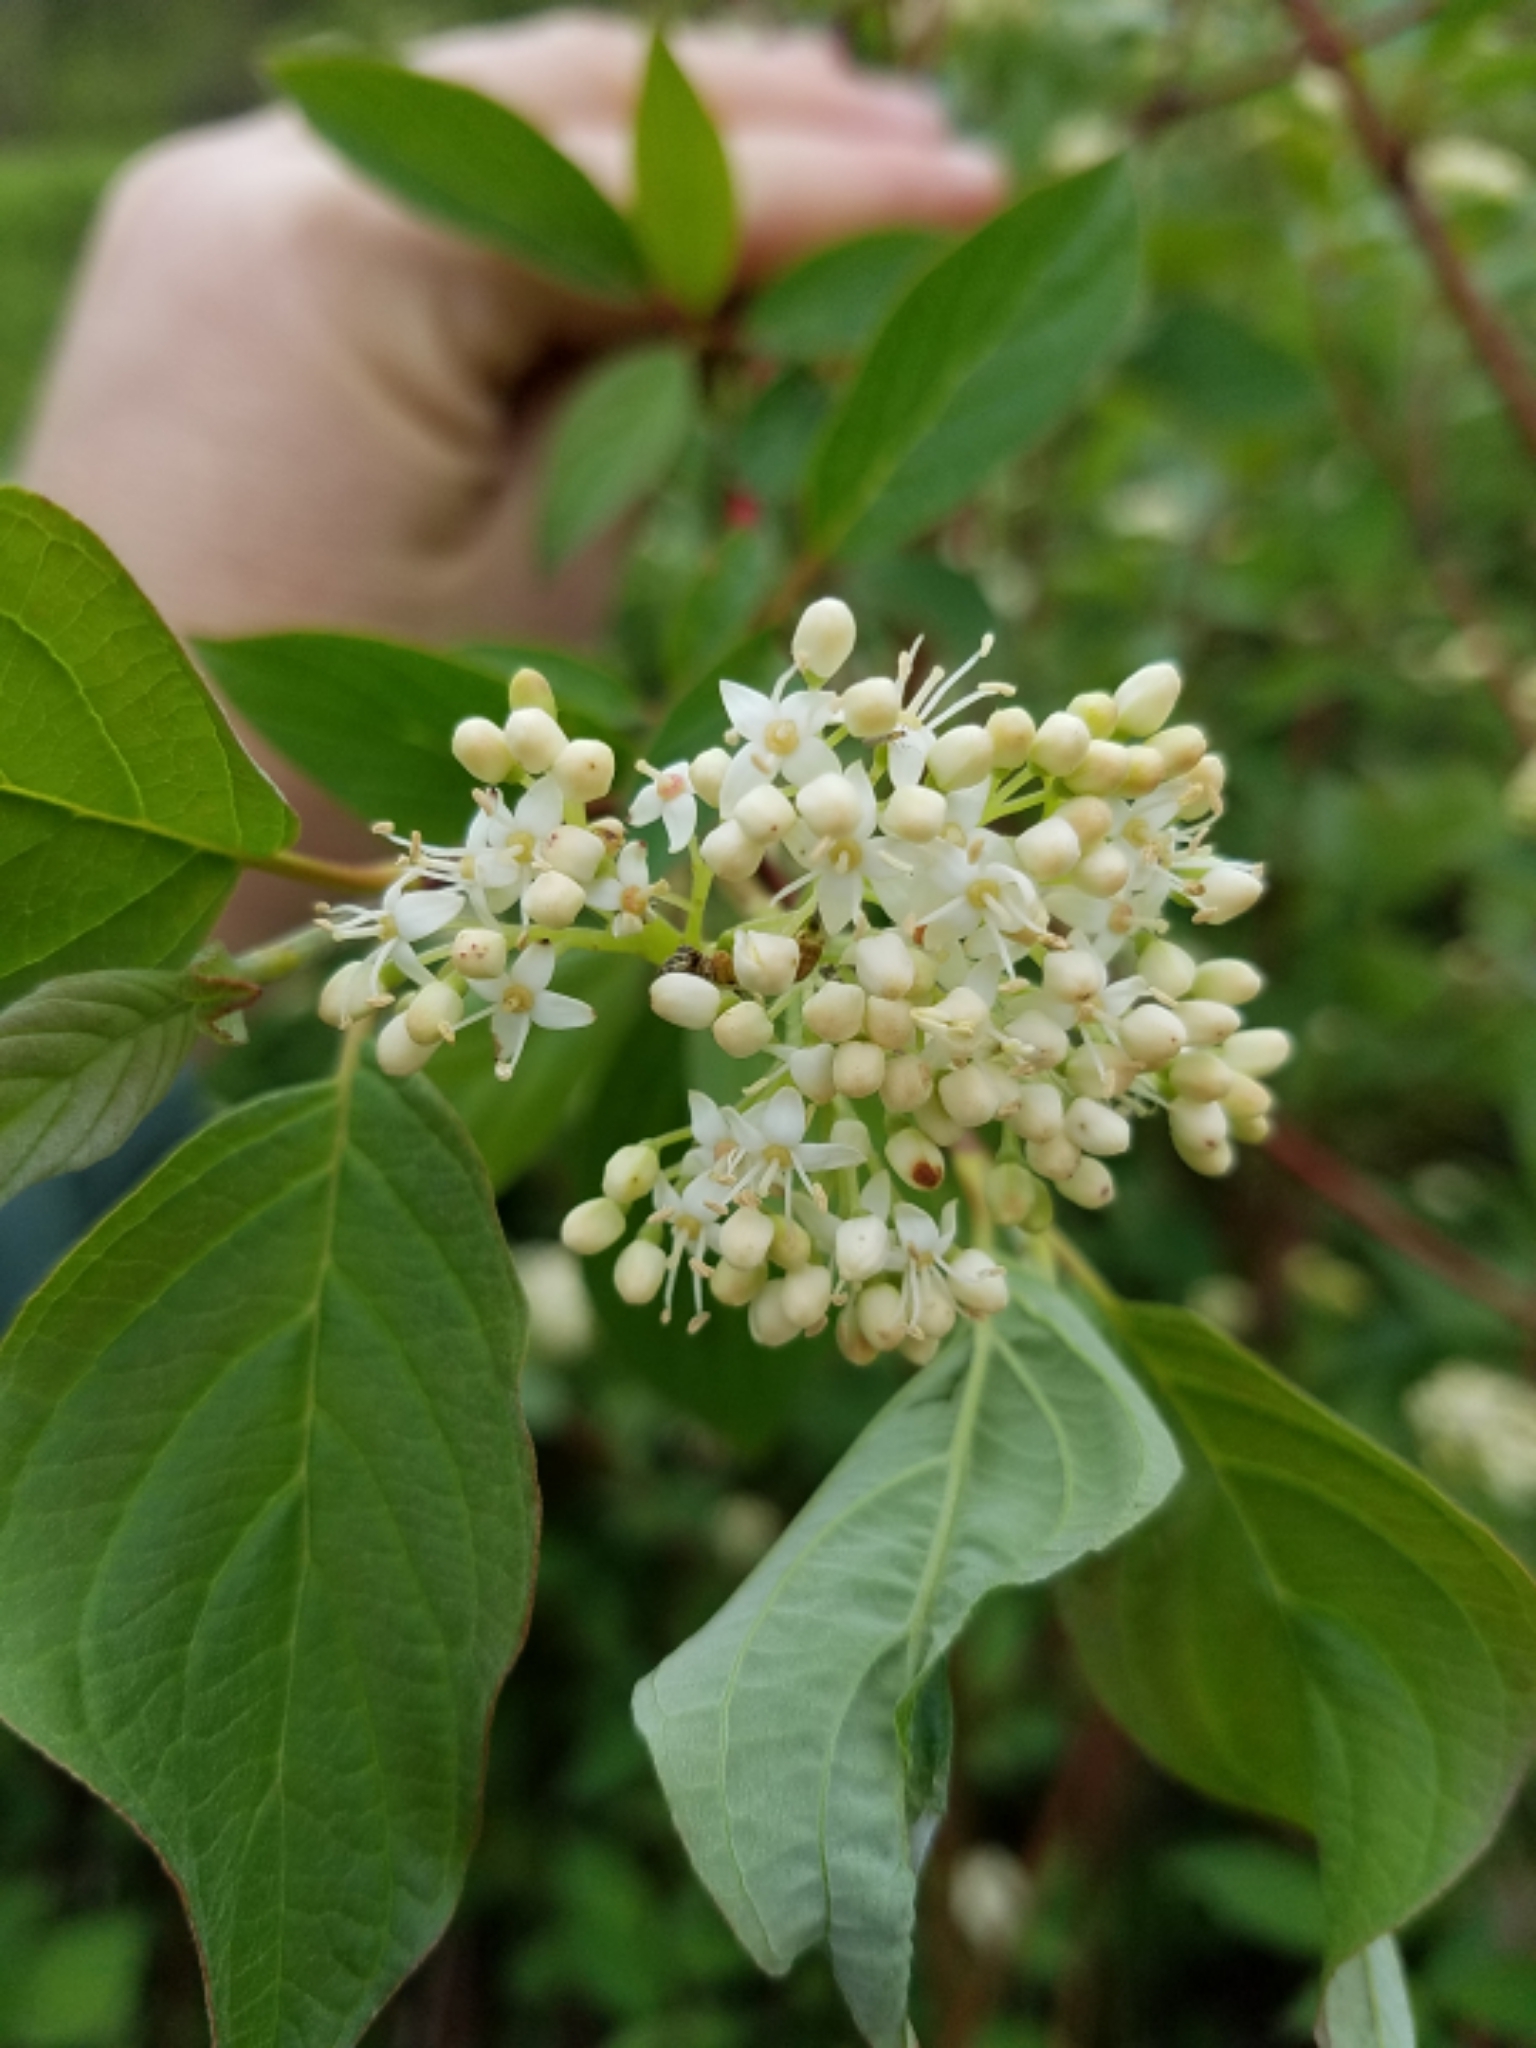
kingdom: Plantae
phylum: Tracheophyta
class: Magnoliopsida
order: Cornales
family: Cornaceae
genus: Cornus
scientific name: Cornus sericea
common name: Red-osier dogwood
